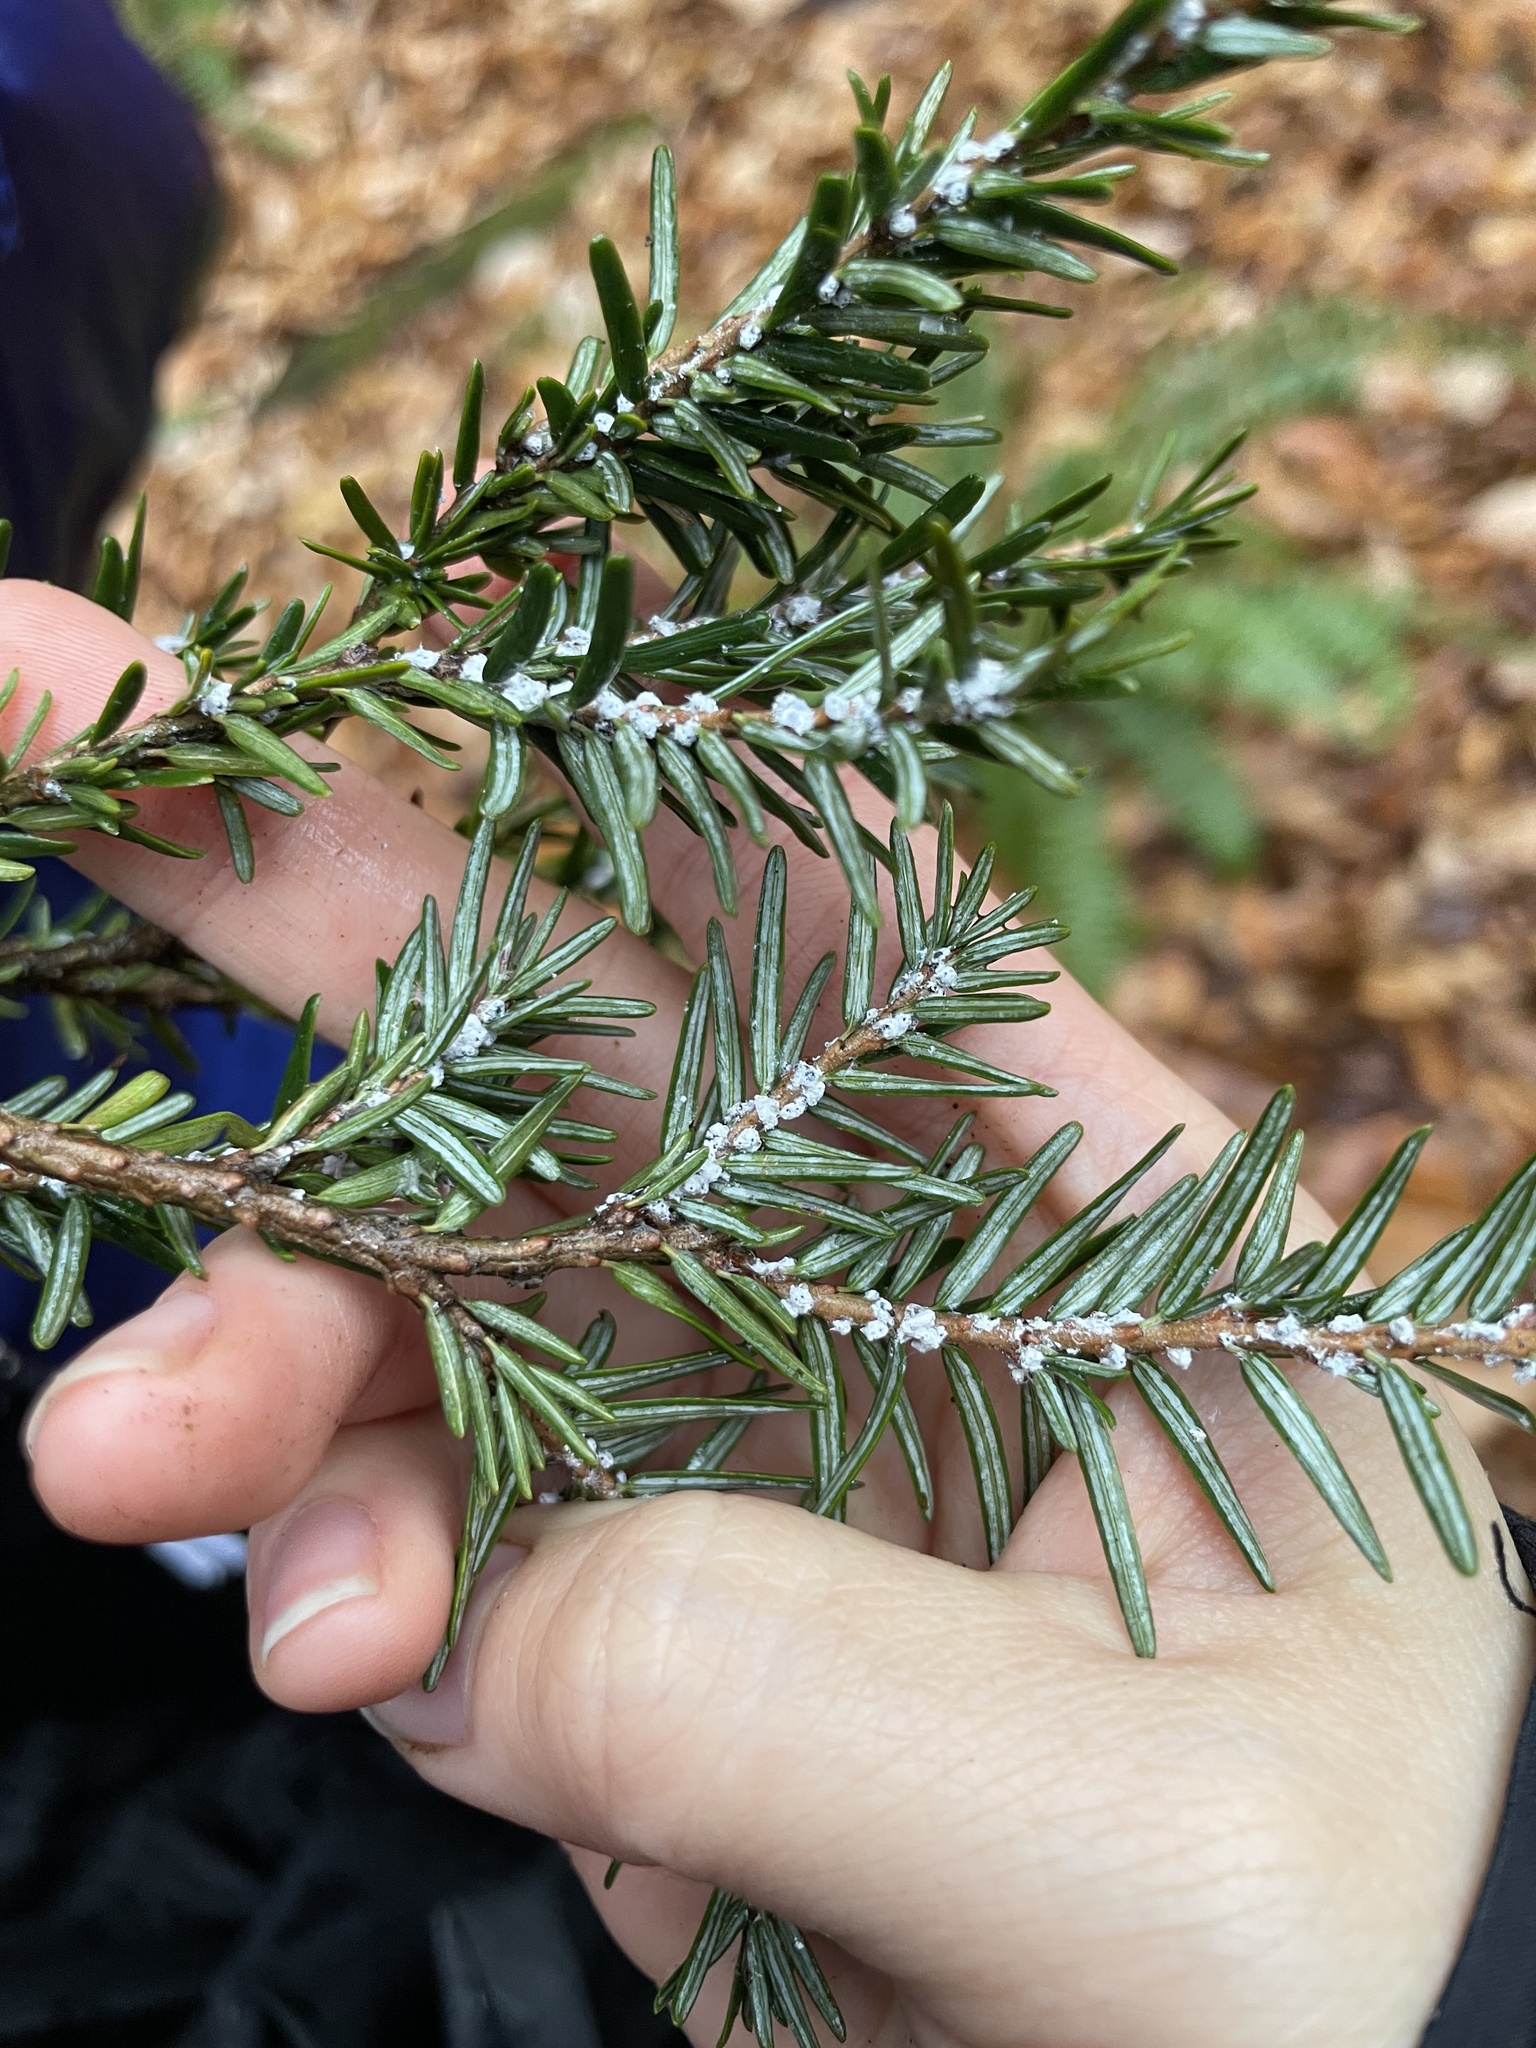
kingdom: Animalia
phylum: Arthropoda
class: Insecta
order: Hemiptera
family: Adelgidae
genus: Adelges
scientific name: Adelges tsugae
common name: Hemlock woolly adelgid
